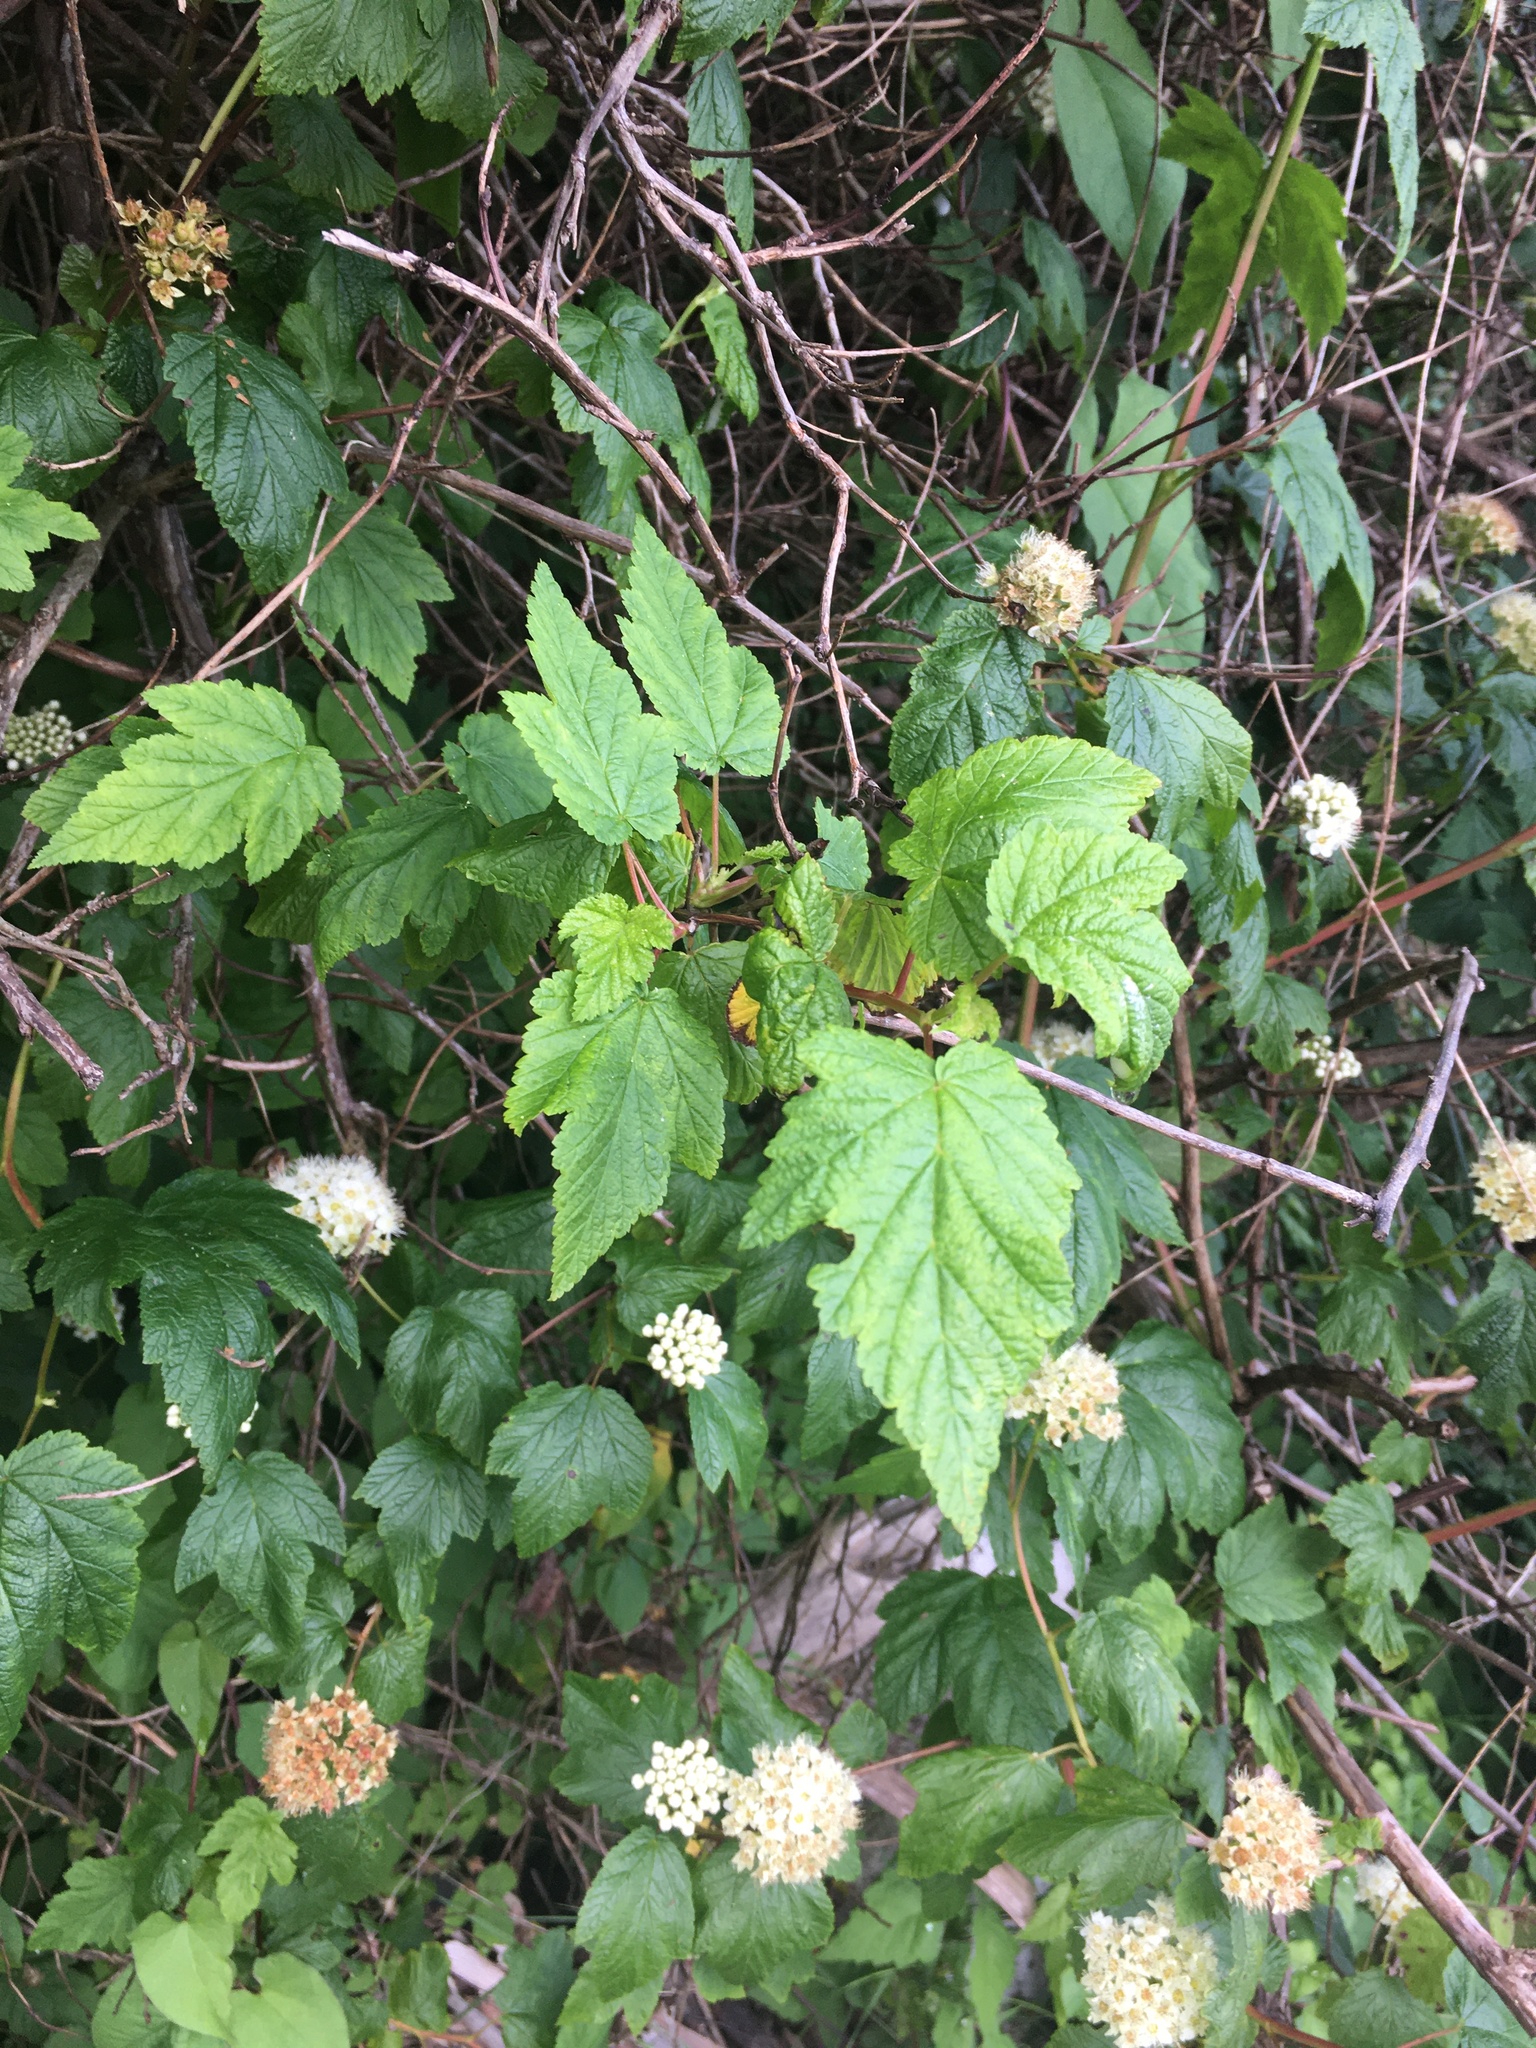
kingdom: Plantae
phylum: Tracheophyta
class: Magnoliopsida
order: Rosales
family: Rosaceae
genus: Physocarpus
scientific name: Physocarpus capitatus
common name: Pacific ninebark
